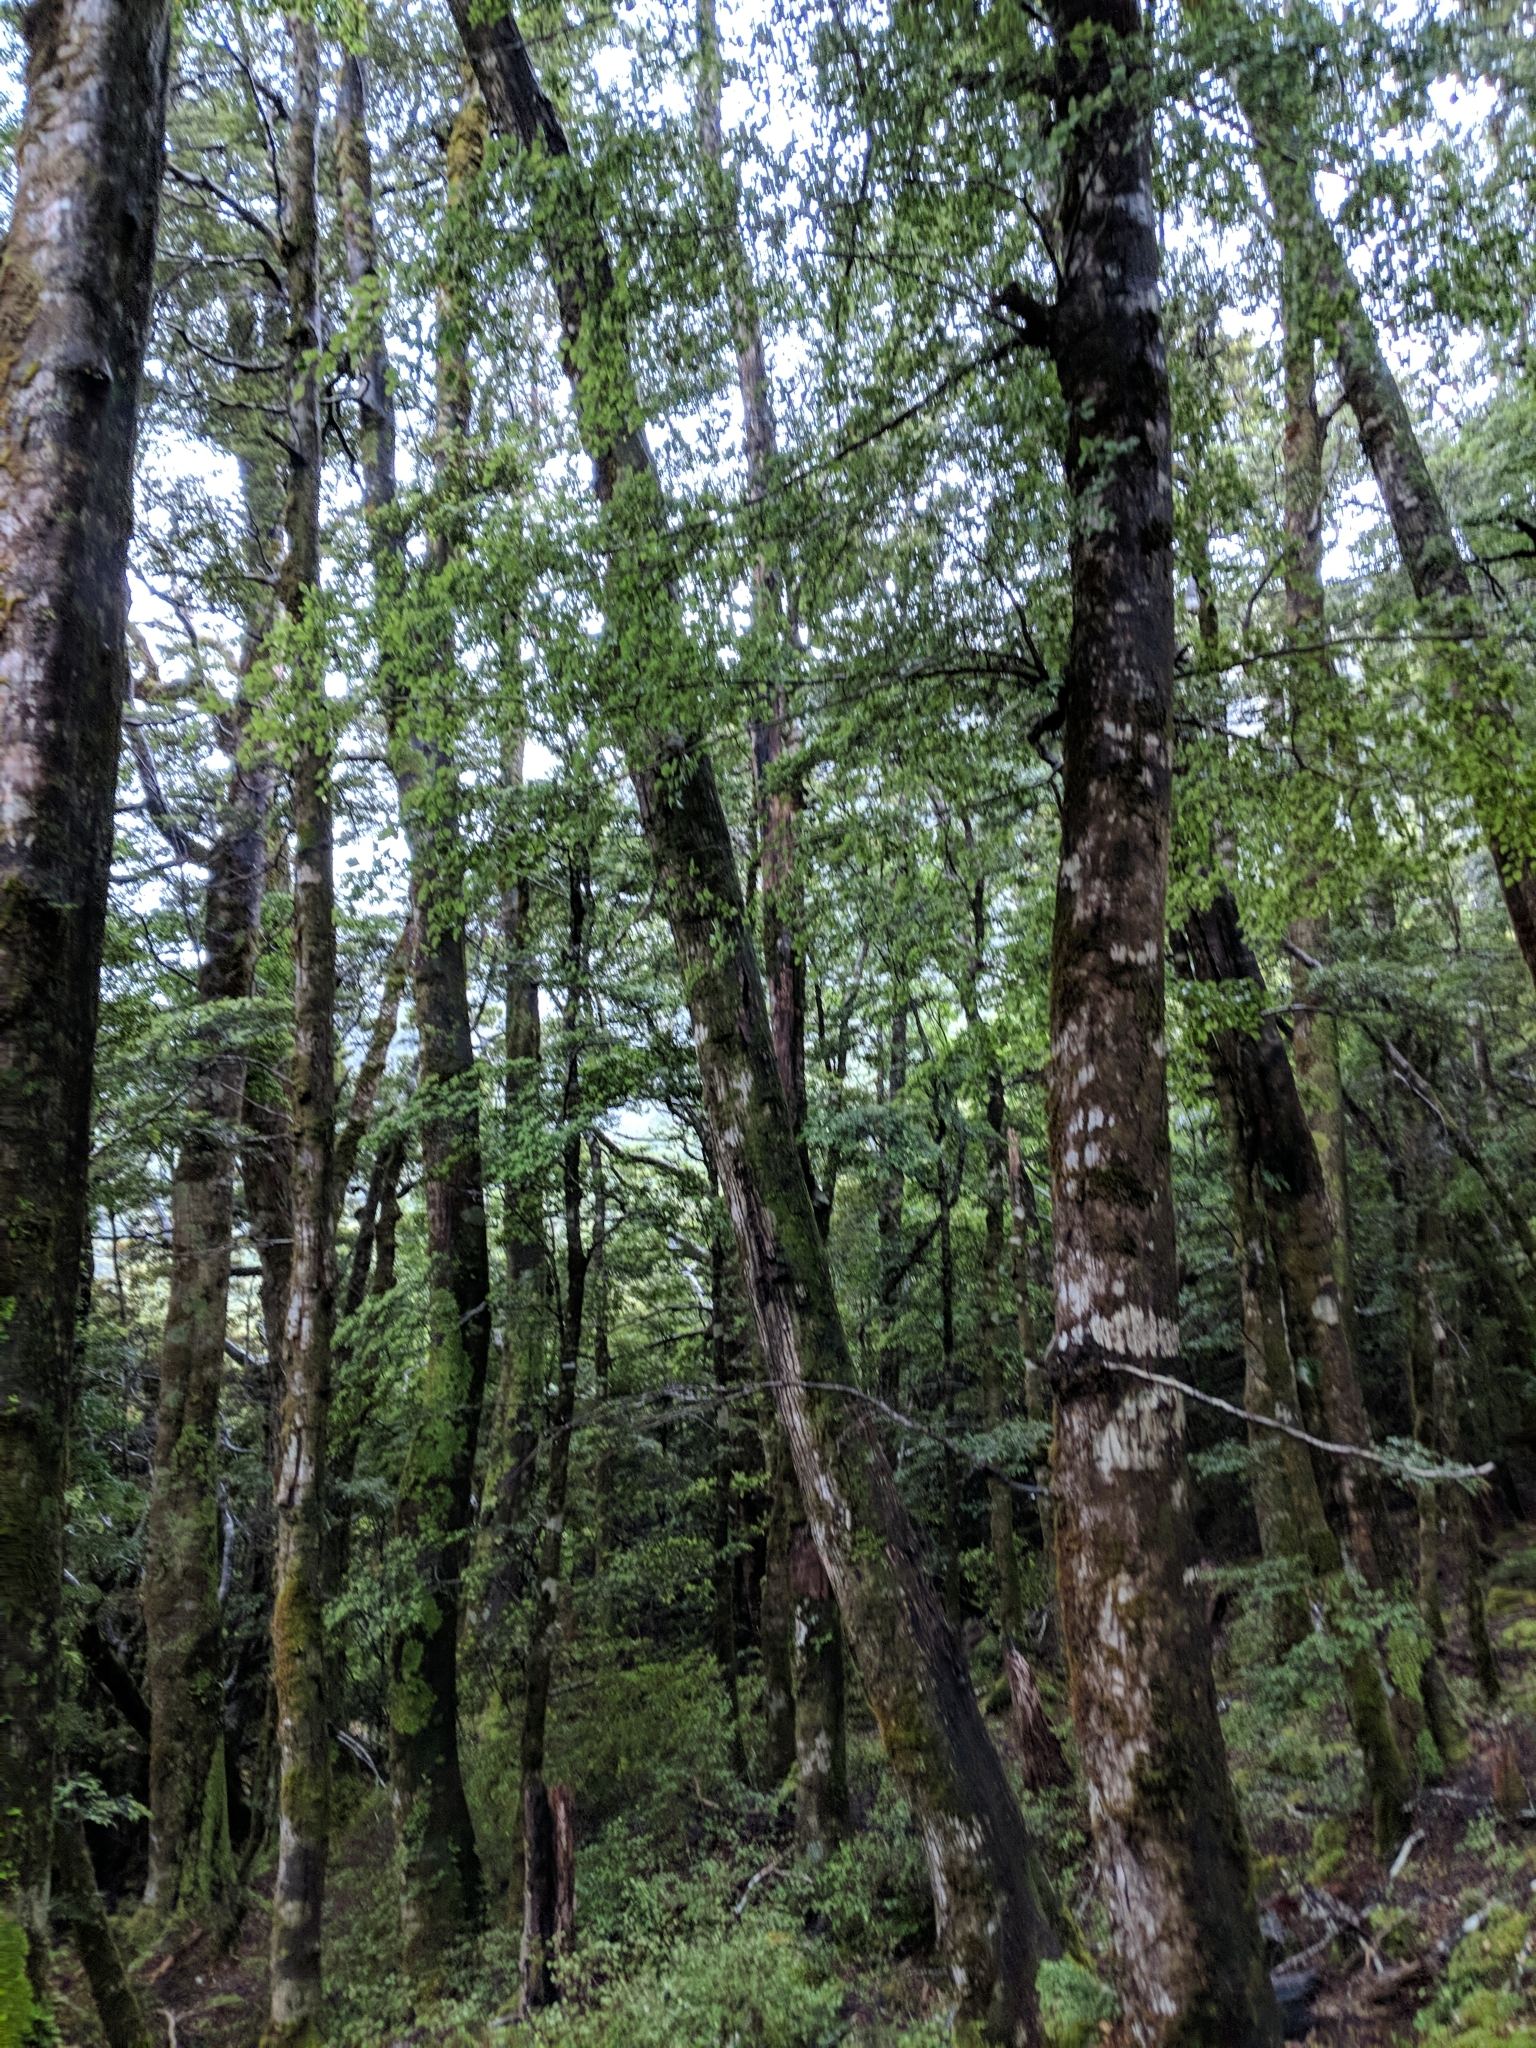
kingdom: Animalia
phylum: Chordata
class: Aves
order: Passeriformes
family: Acanthisittidae
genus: Acanthisitta
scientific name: Acanthisitta chloris
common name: Rifleman
